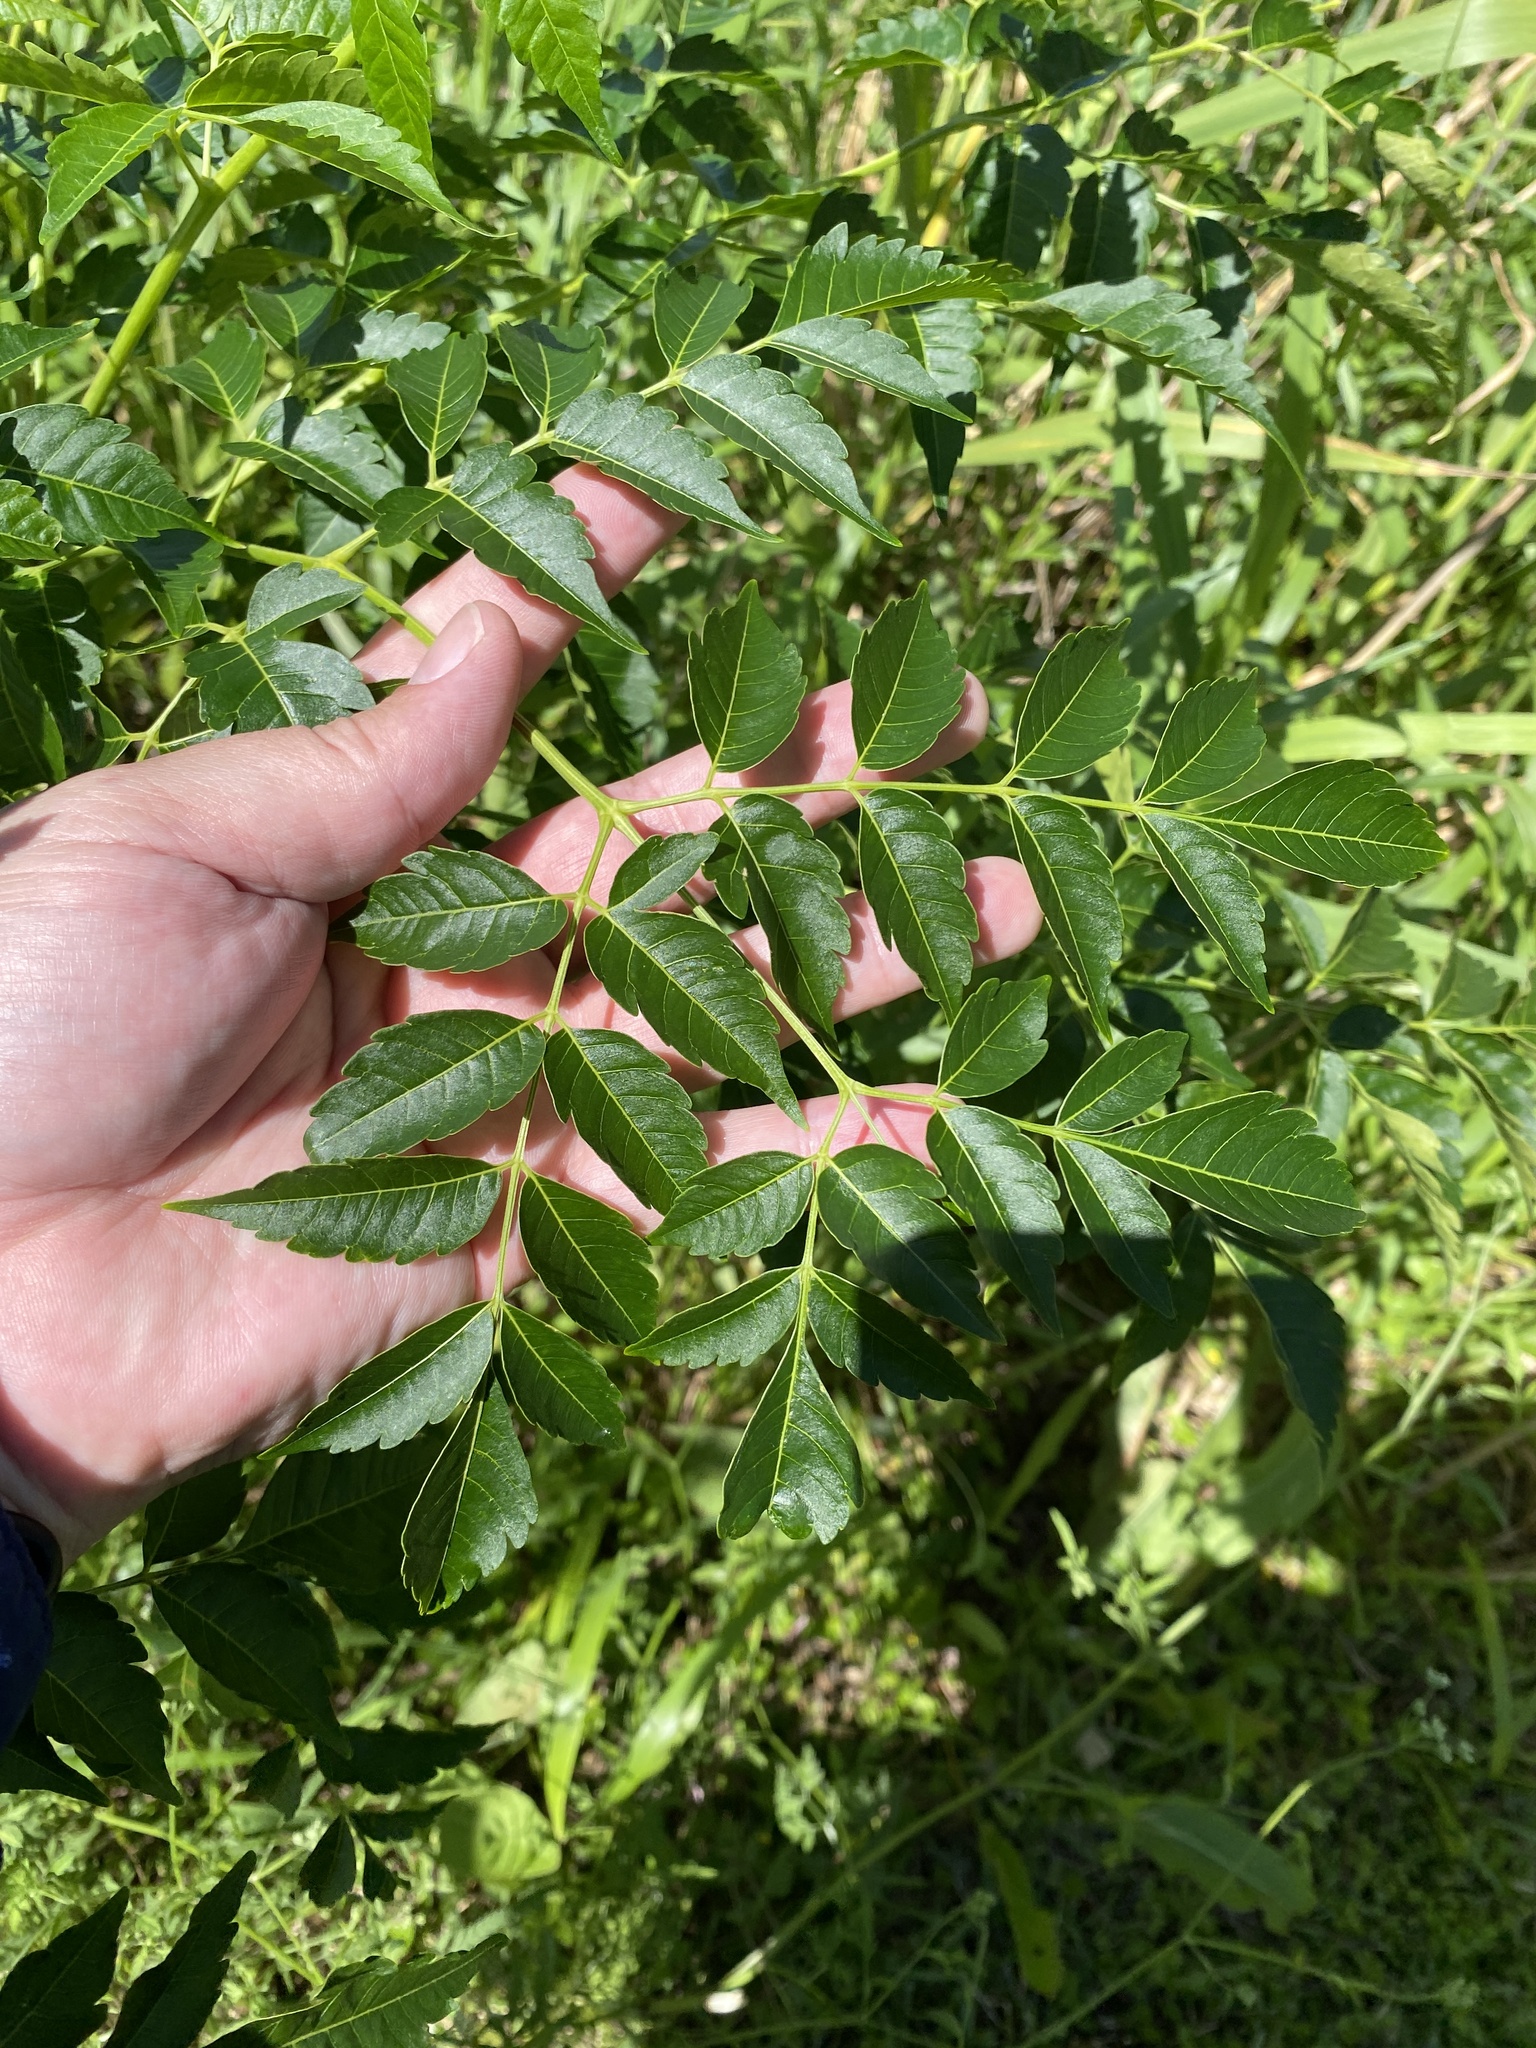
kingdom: Plantae
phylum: Tracheophyta
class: Magnoliopsida
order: Sapindales
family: Meliaceae
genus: Melia
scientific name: Melia azedarach
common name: Chinaberrytree
